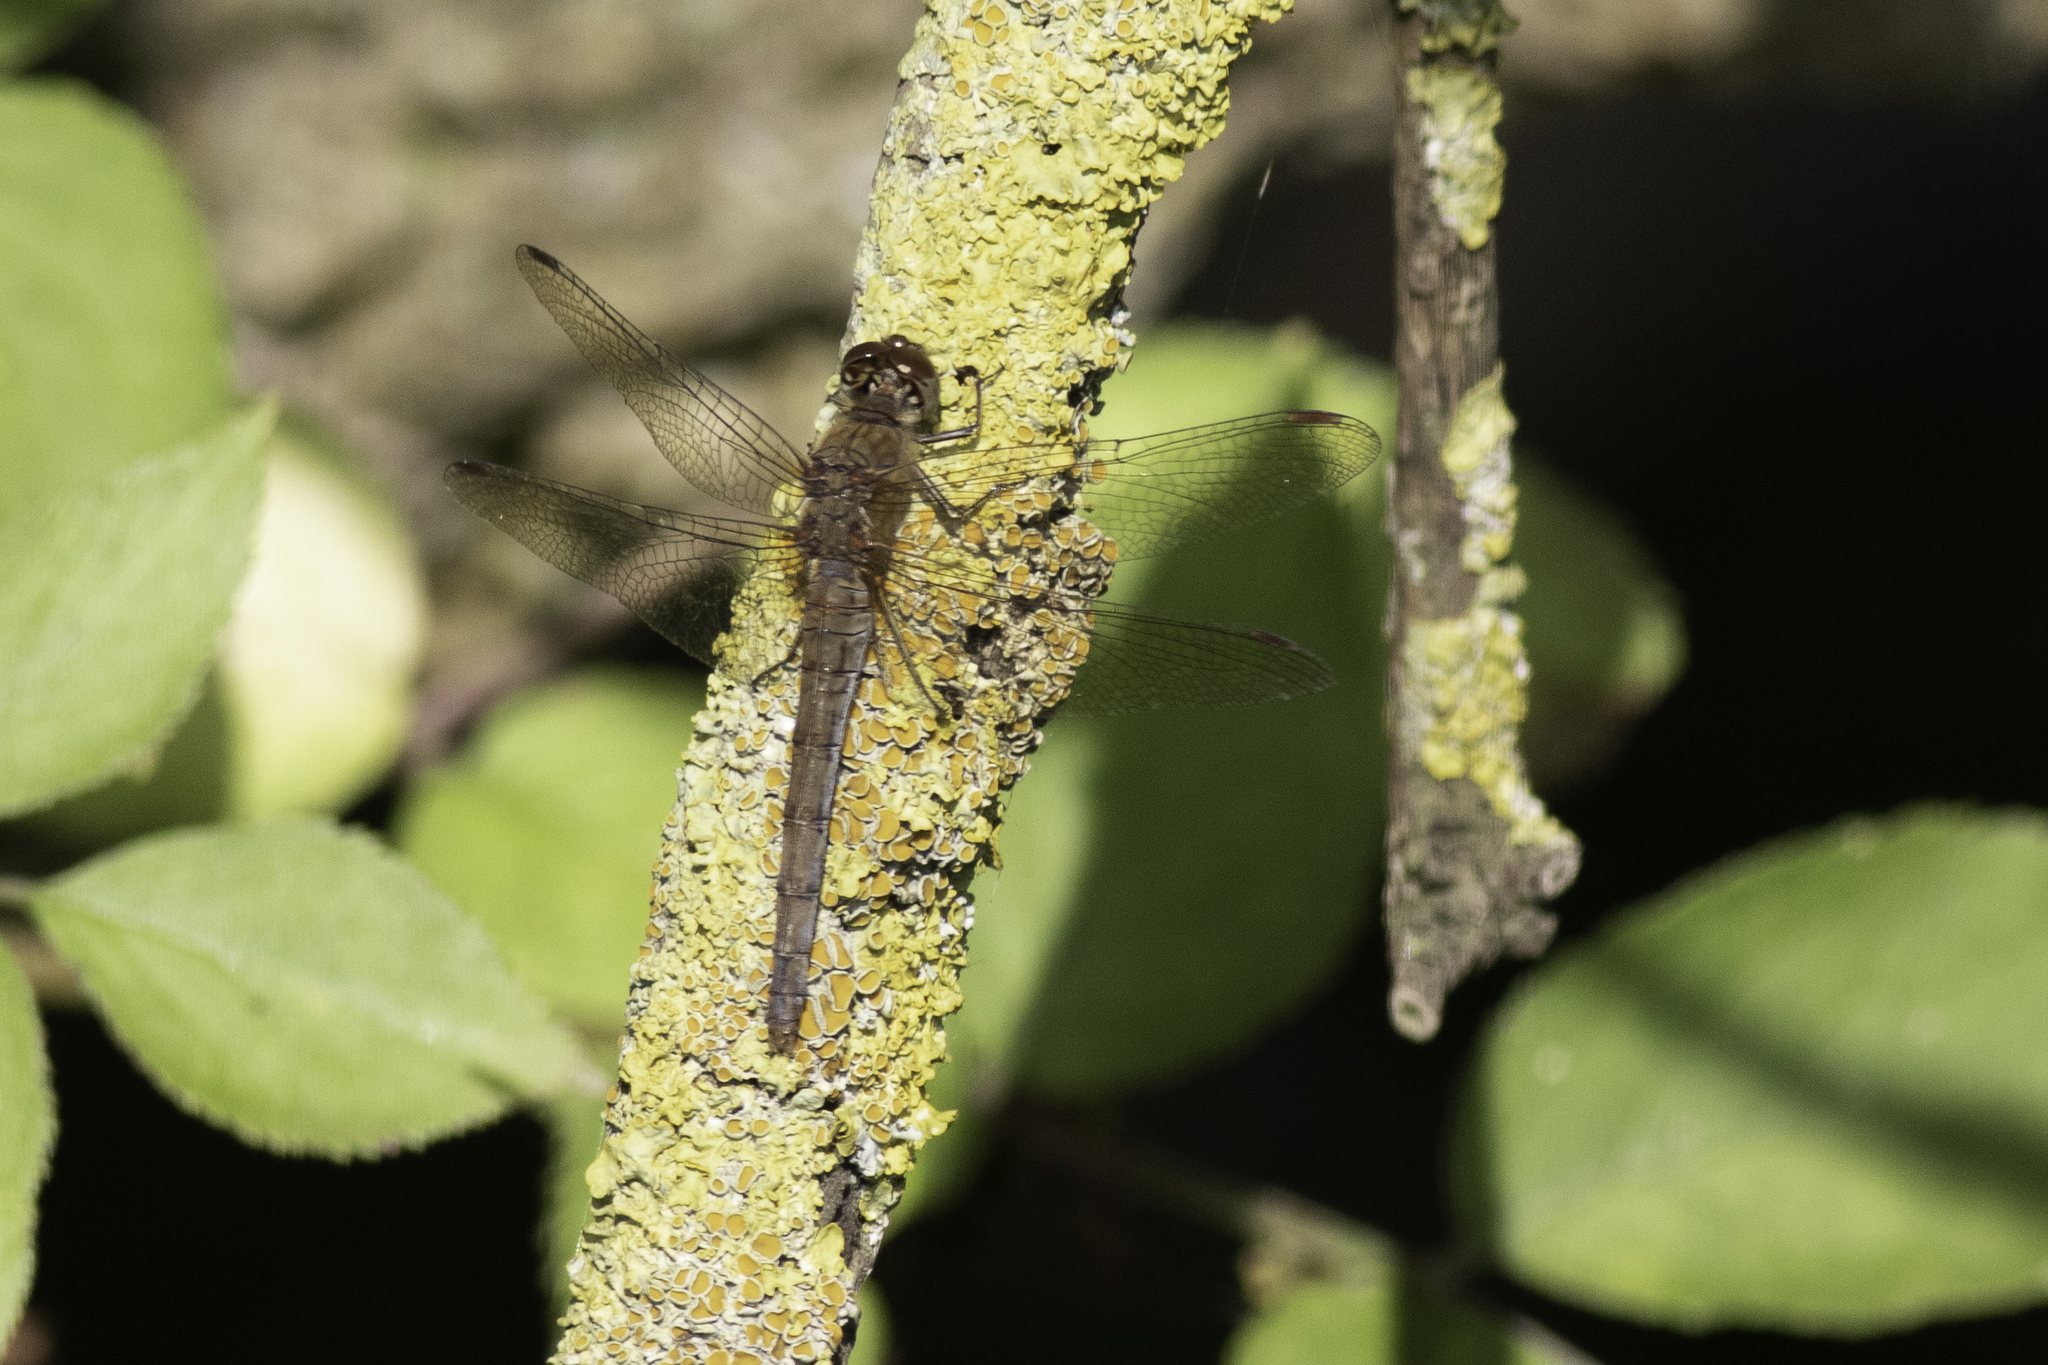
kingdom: Animalia
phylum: Arthropoda
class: Insecta
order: Odonata
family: Libellulidae
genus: Sympetrum
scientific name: Sympetrum striolatum
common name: Common darter
